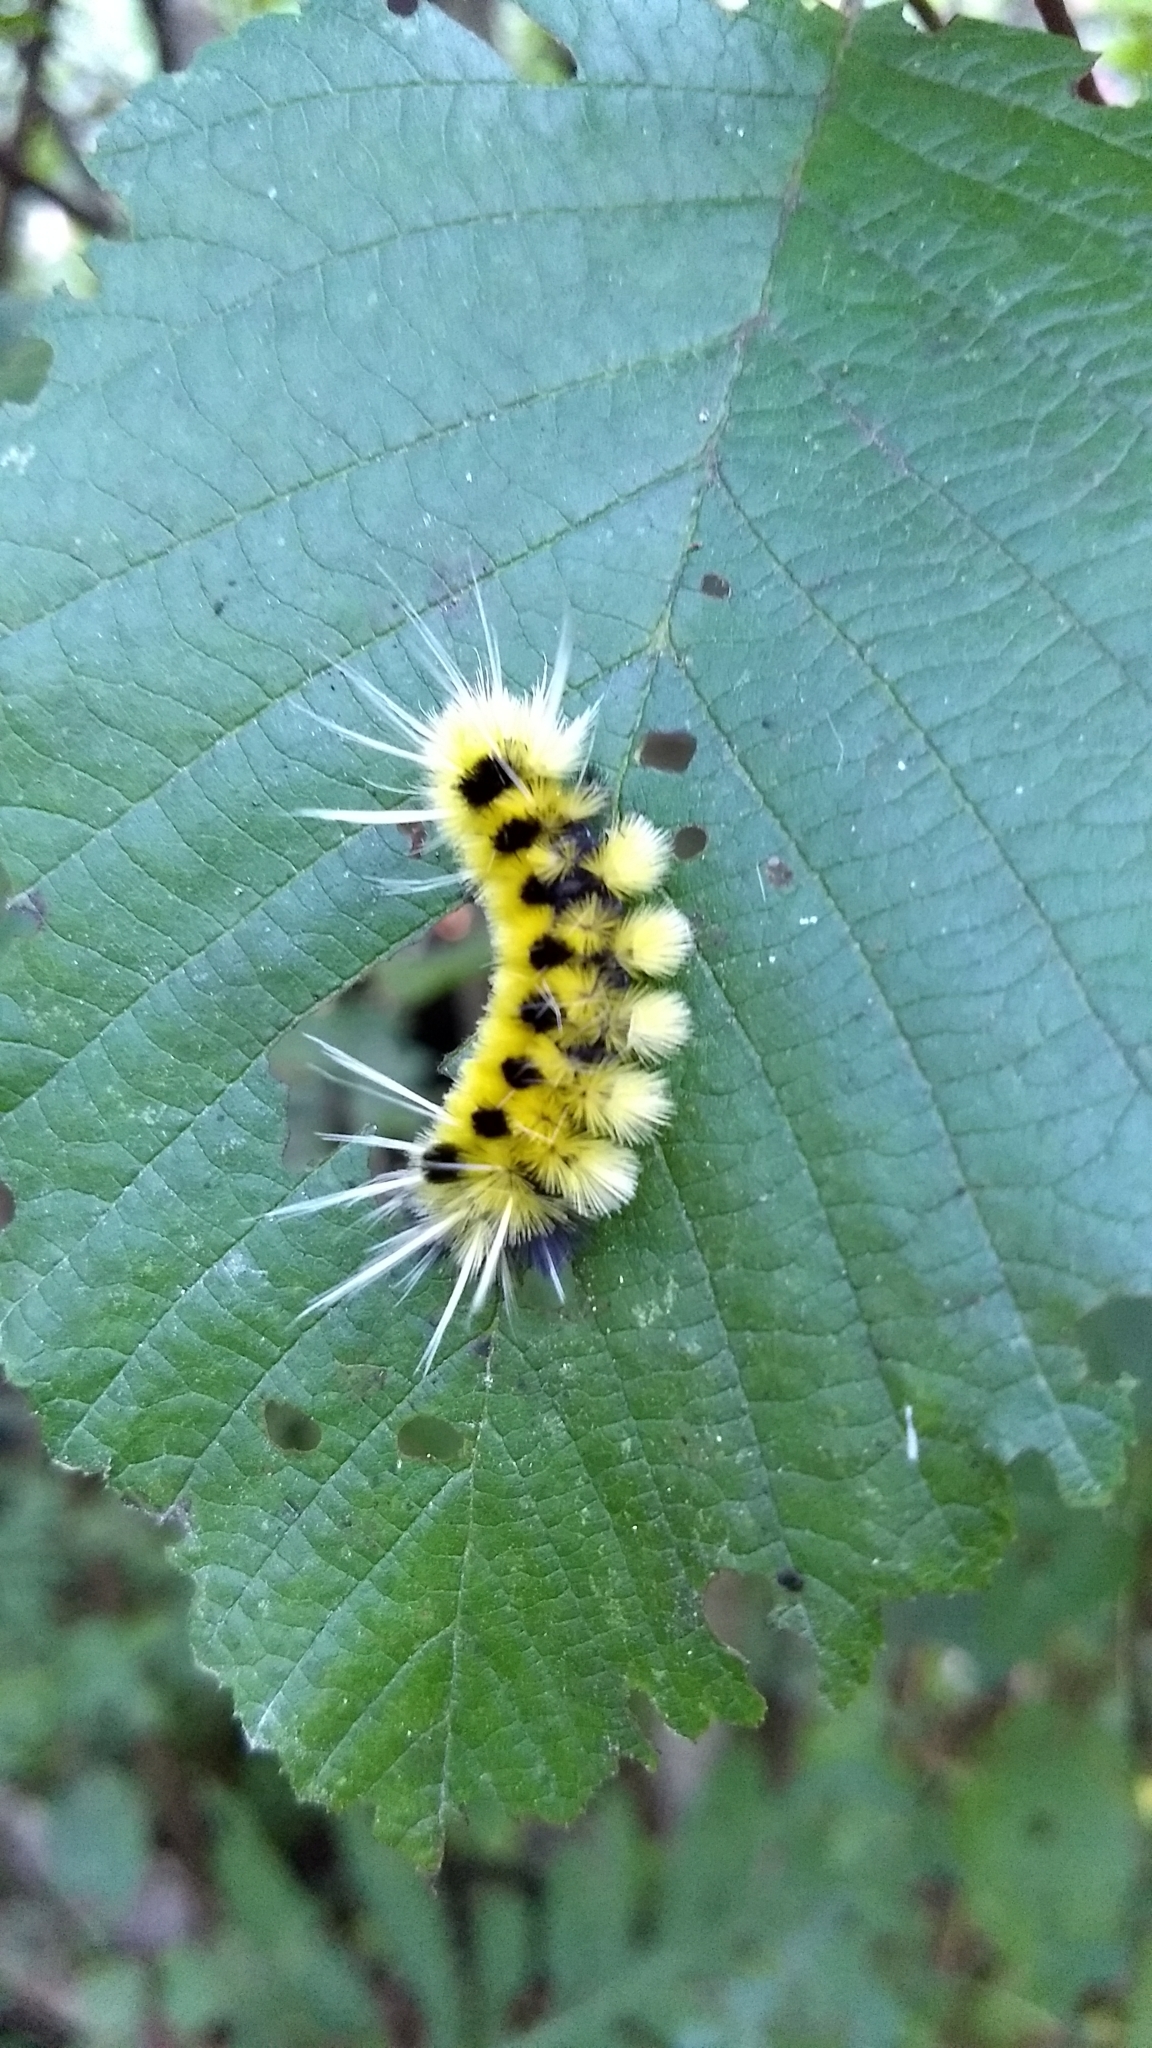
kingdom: Animalia
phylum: Arthropoda
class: Insecta
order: Lepidoptera
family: Erebidae
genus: Lophocampa
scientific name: Lophocampa maculata
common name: Spotted tussock moth
